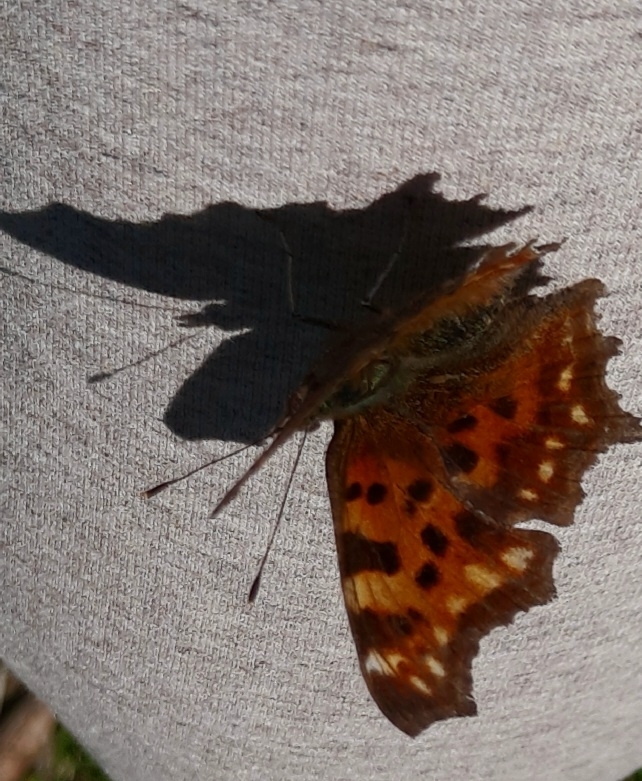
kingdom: Animalia
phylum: Arthropoda
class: Insecta
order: Lepidoptera
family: Nymphalidae
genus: Polygonia
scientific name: Polygonia c-album
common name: Comma
